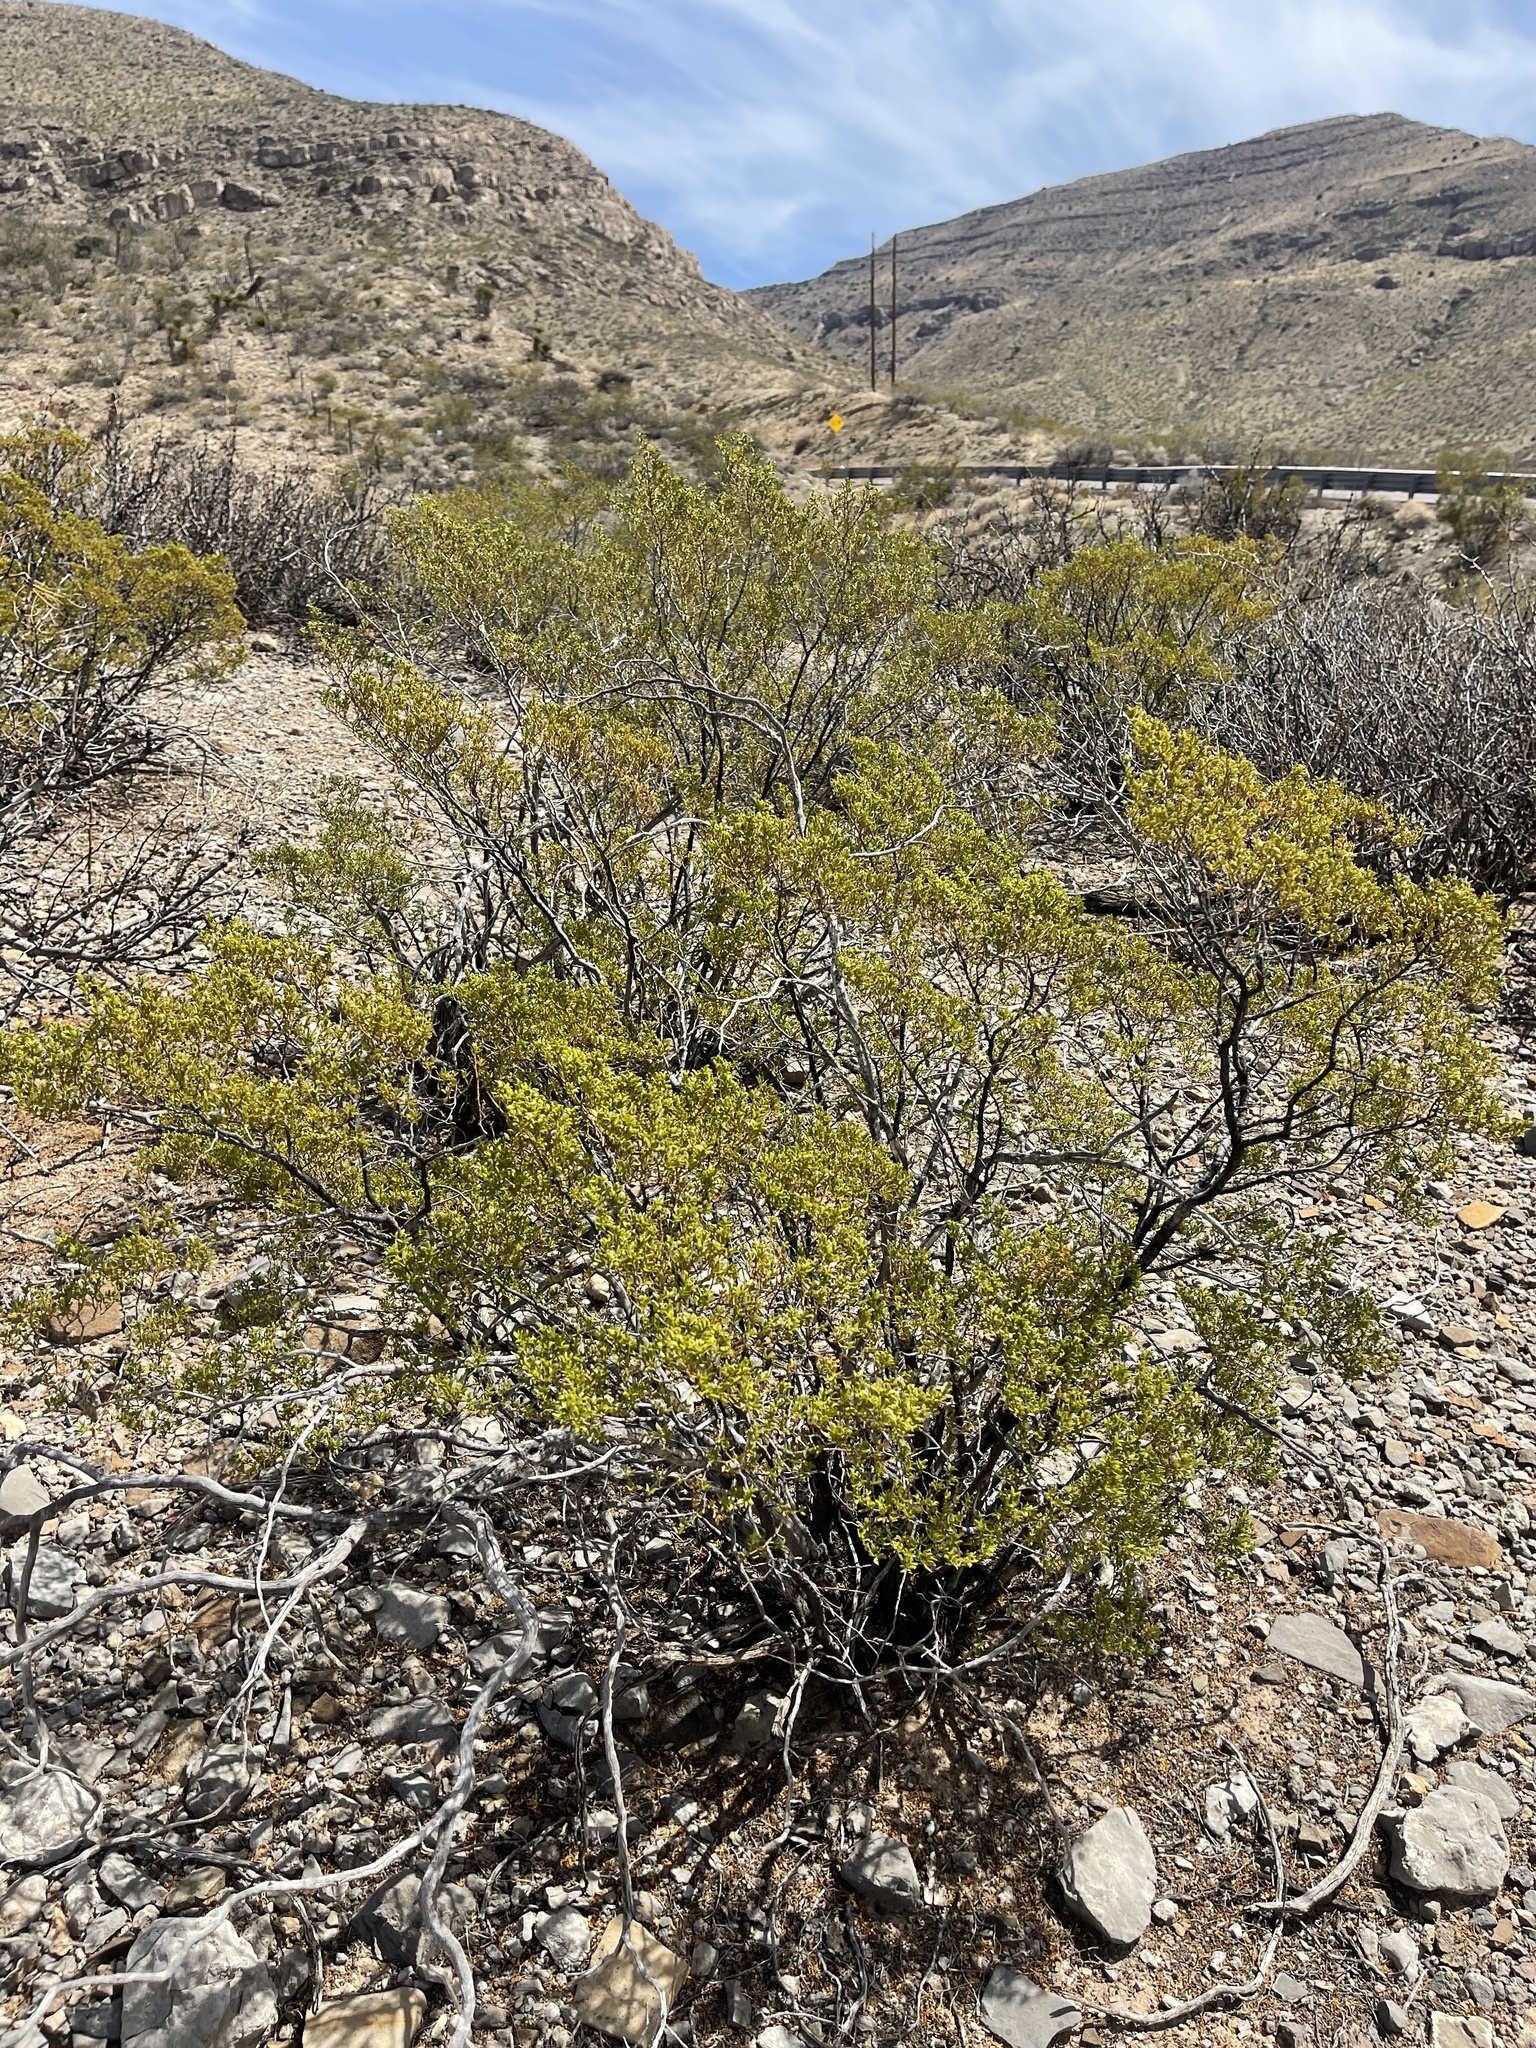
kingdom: Plantae
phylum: Tracheophyta
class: Magnoliopsida
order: Zygophyllales
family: Zygophyllaceae
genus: Larrea
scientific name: Larrea tridentata
